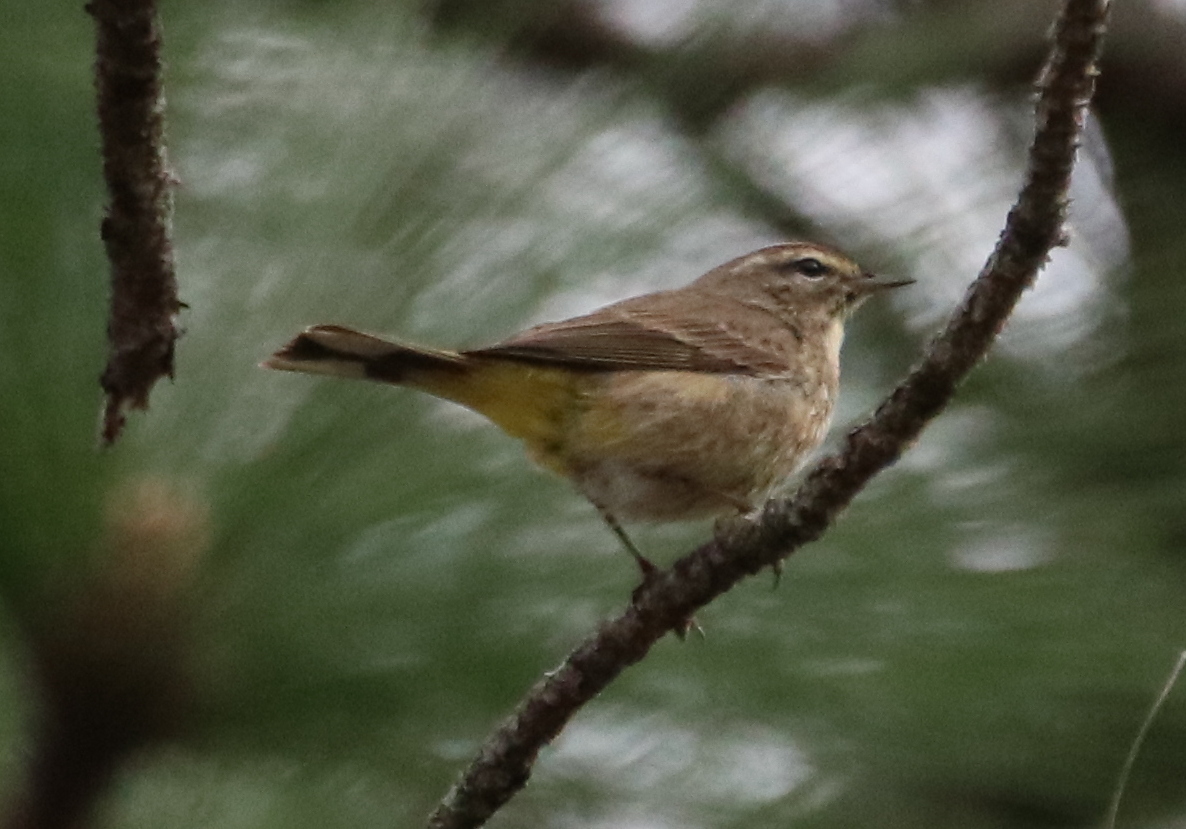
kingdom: Animalia
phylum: Chordata
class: Aves
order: Passeriformes
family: Parulidae
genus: Setophaga
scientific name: Setophaga palmarum
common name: Palm warbler
